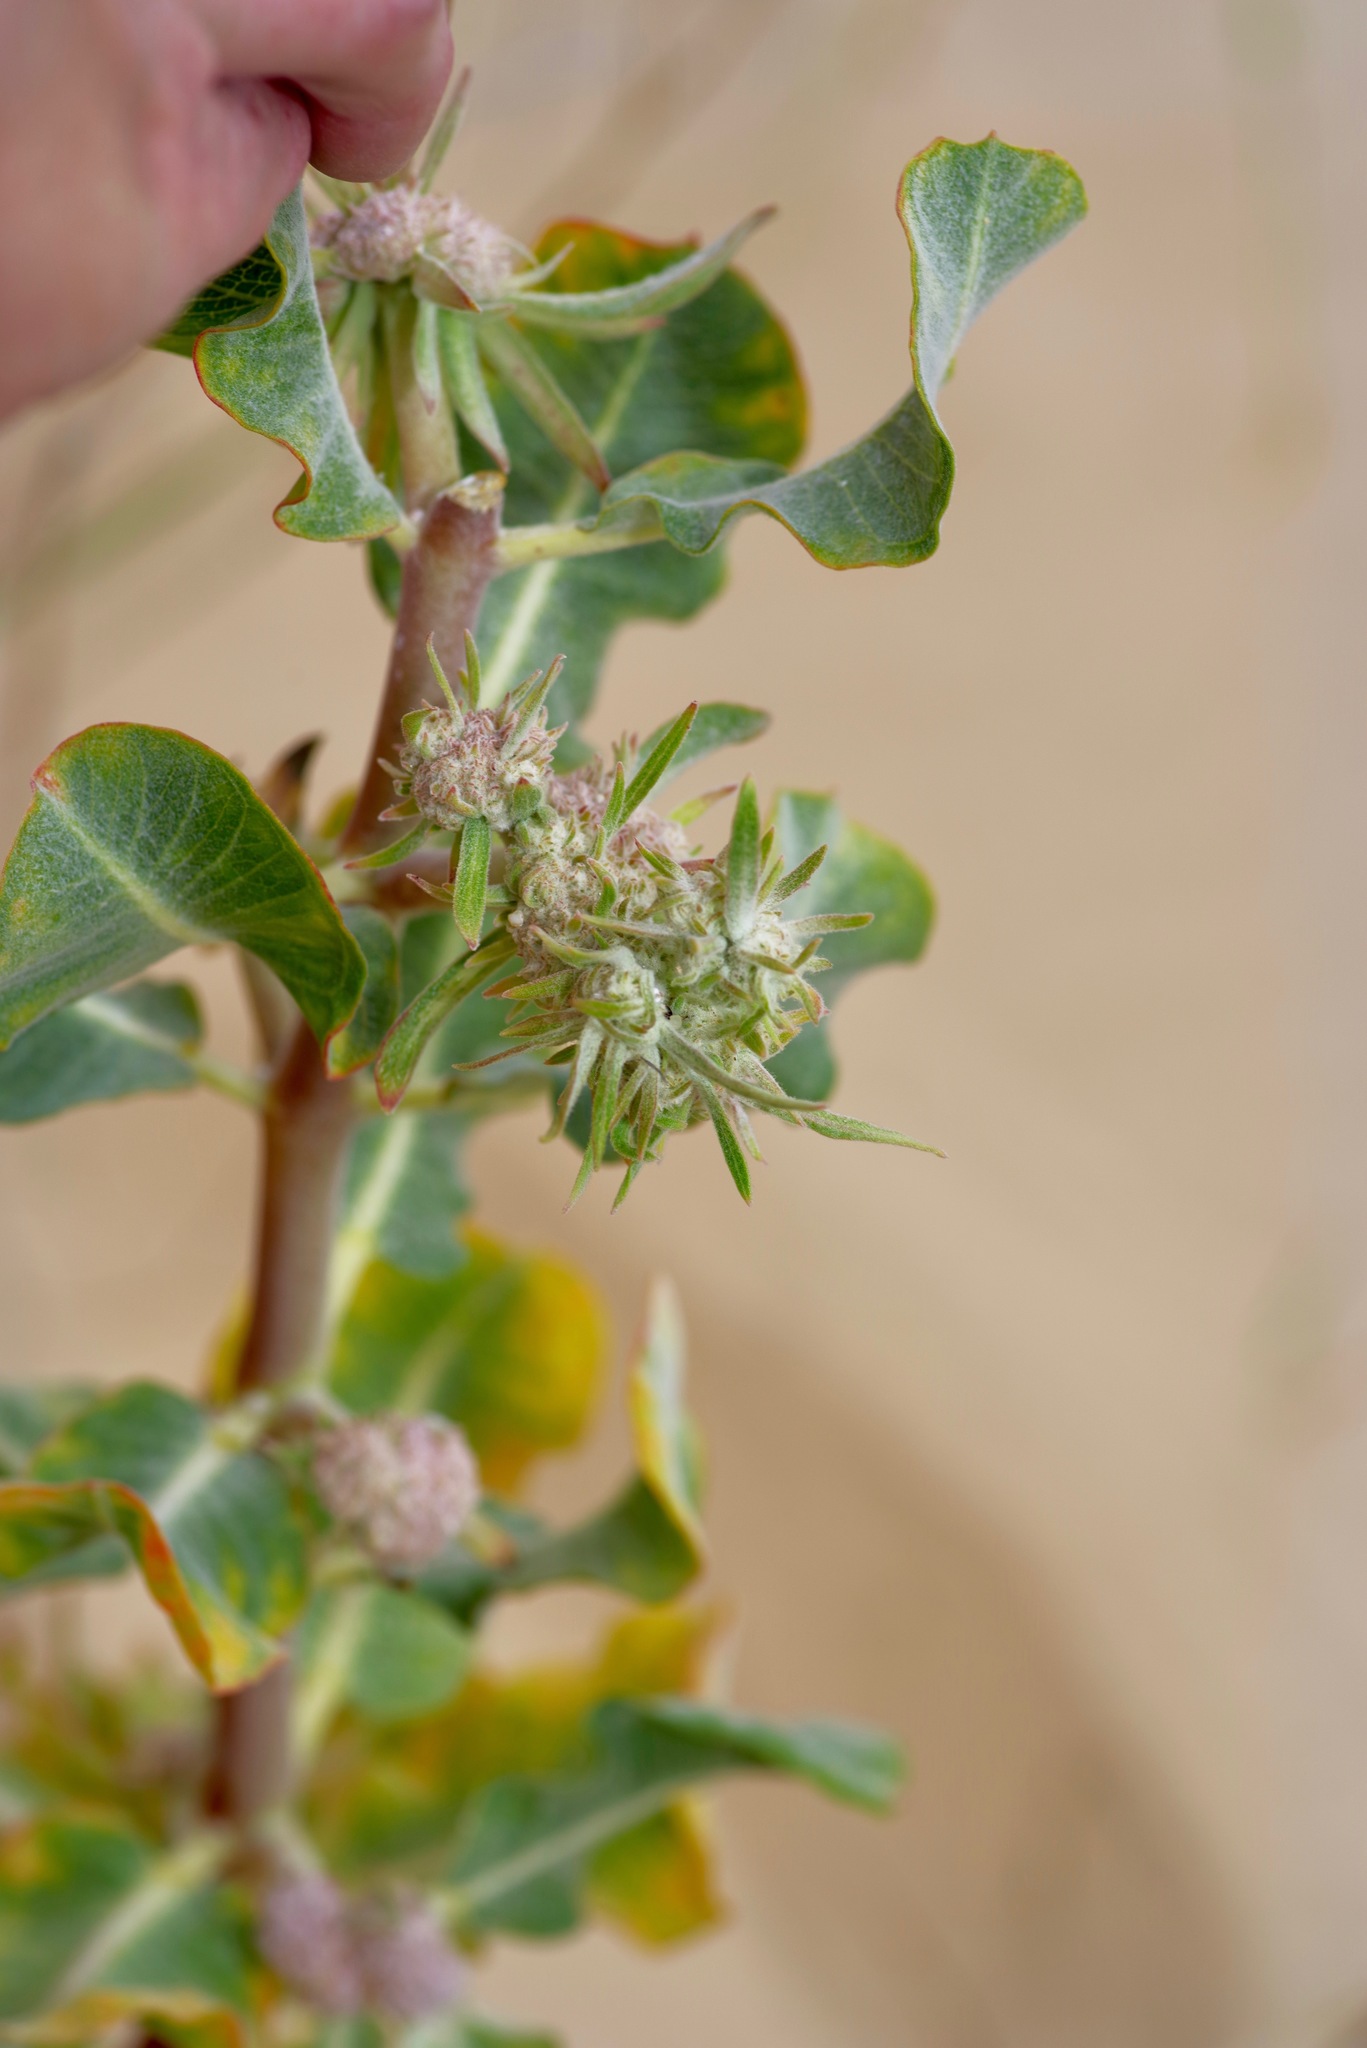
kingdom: Plantae
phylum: Tracheophyta
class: Magnoliopsida
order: Gentianales
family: Apocynaceae
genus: Asclepias
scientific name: Asclepias arenaria
